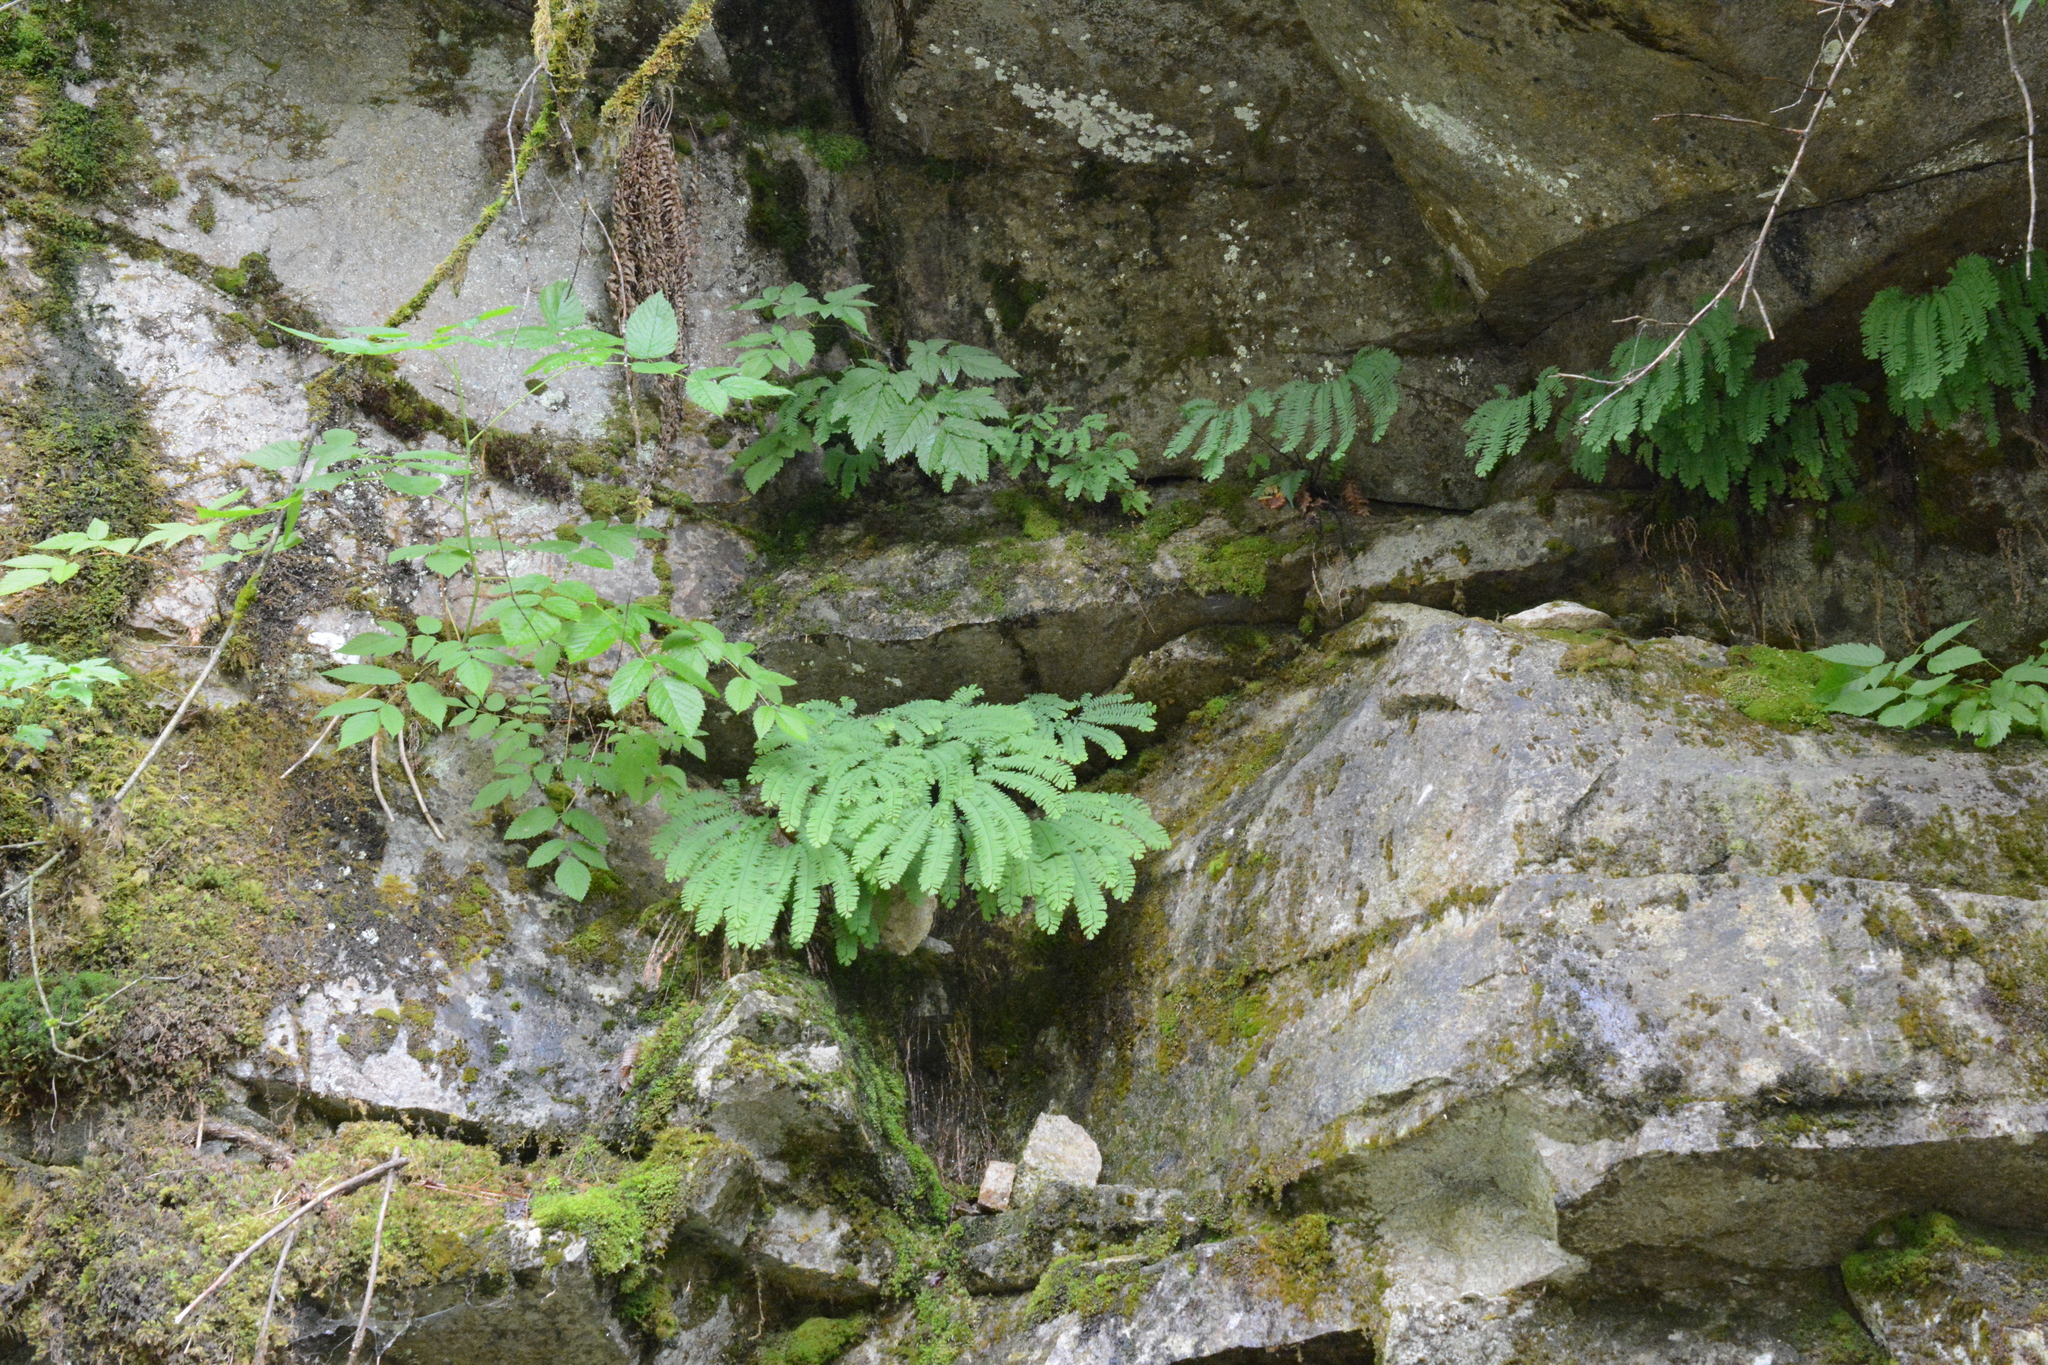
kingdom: Plantae
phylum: Tracheophyta
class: Polypodiopsida
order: Polypodiales
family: Pteridaceae
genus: Adiantum
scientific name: Adiantum aleuticum
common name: Aleutian maidenhair fern
